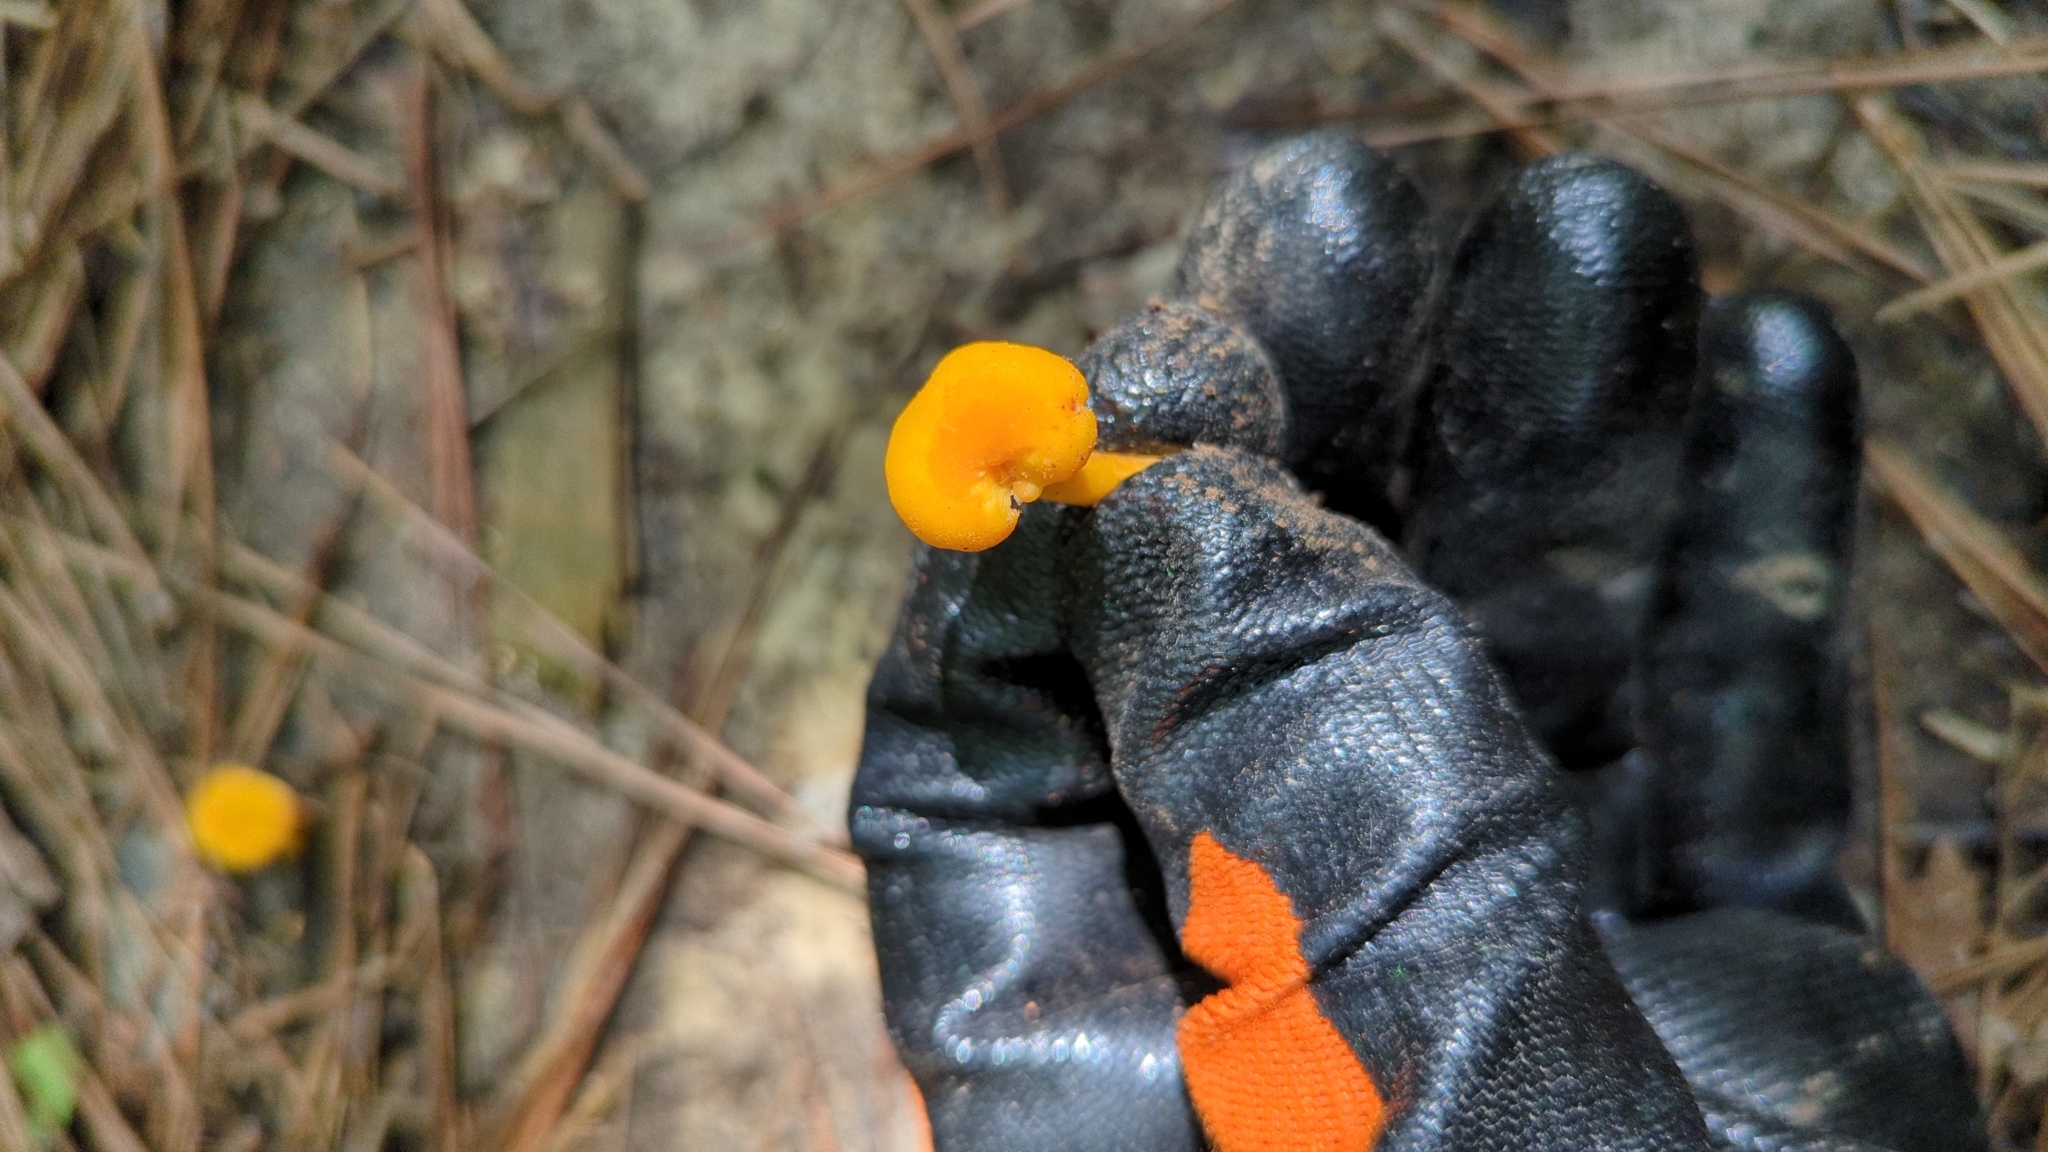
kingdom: Fungi
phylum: Basidiomycota
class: Agaricomycetes
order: Cantharellales
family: Hydnaceae
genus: Cantharellus
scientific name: Cantharellus minor
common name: Small chanterelle
